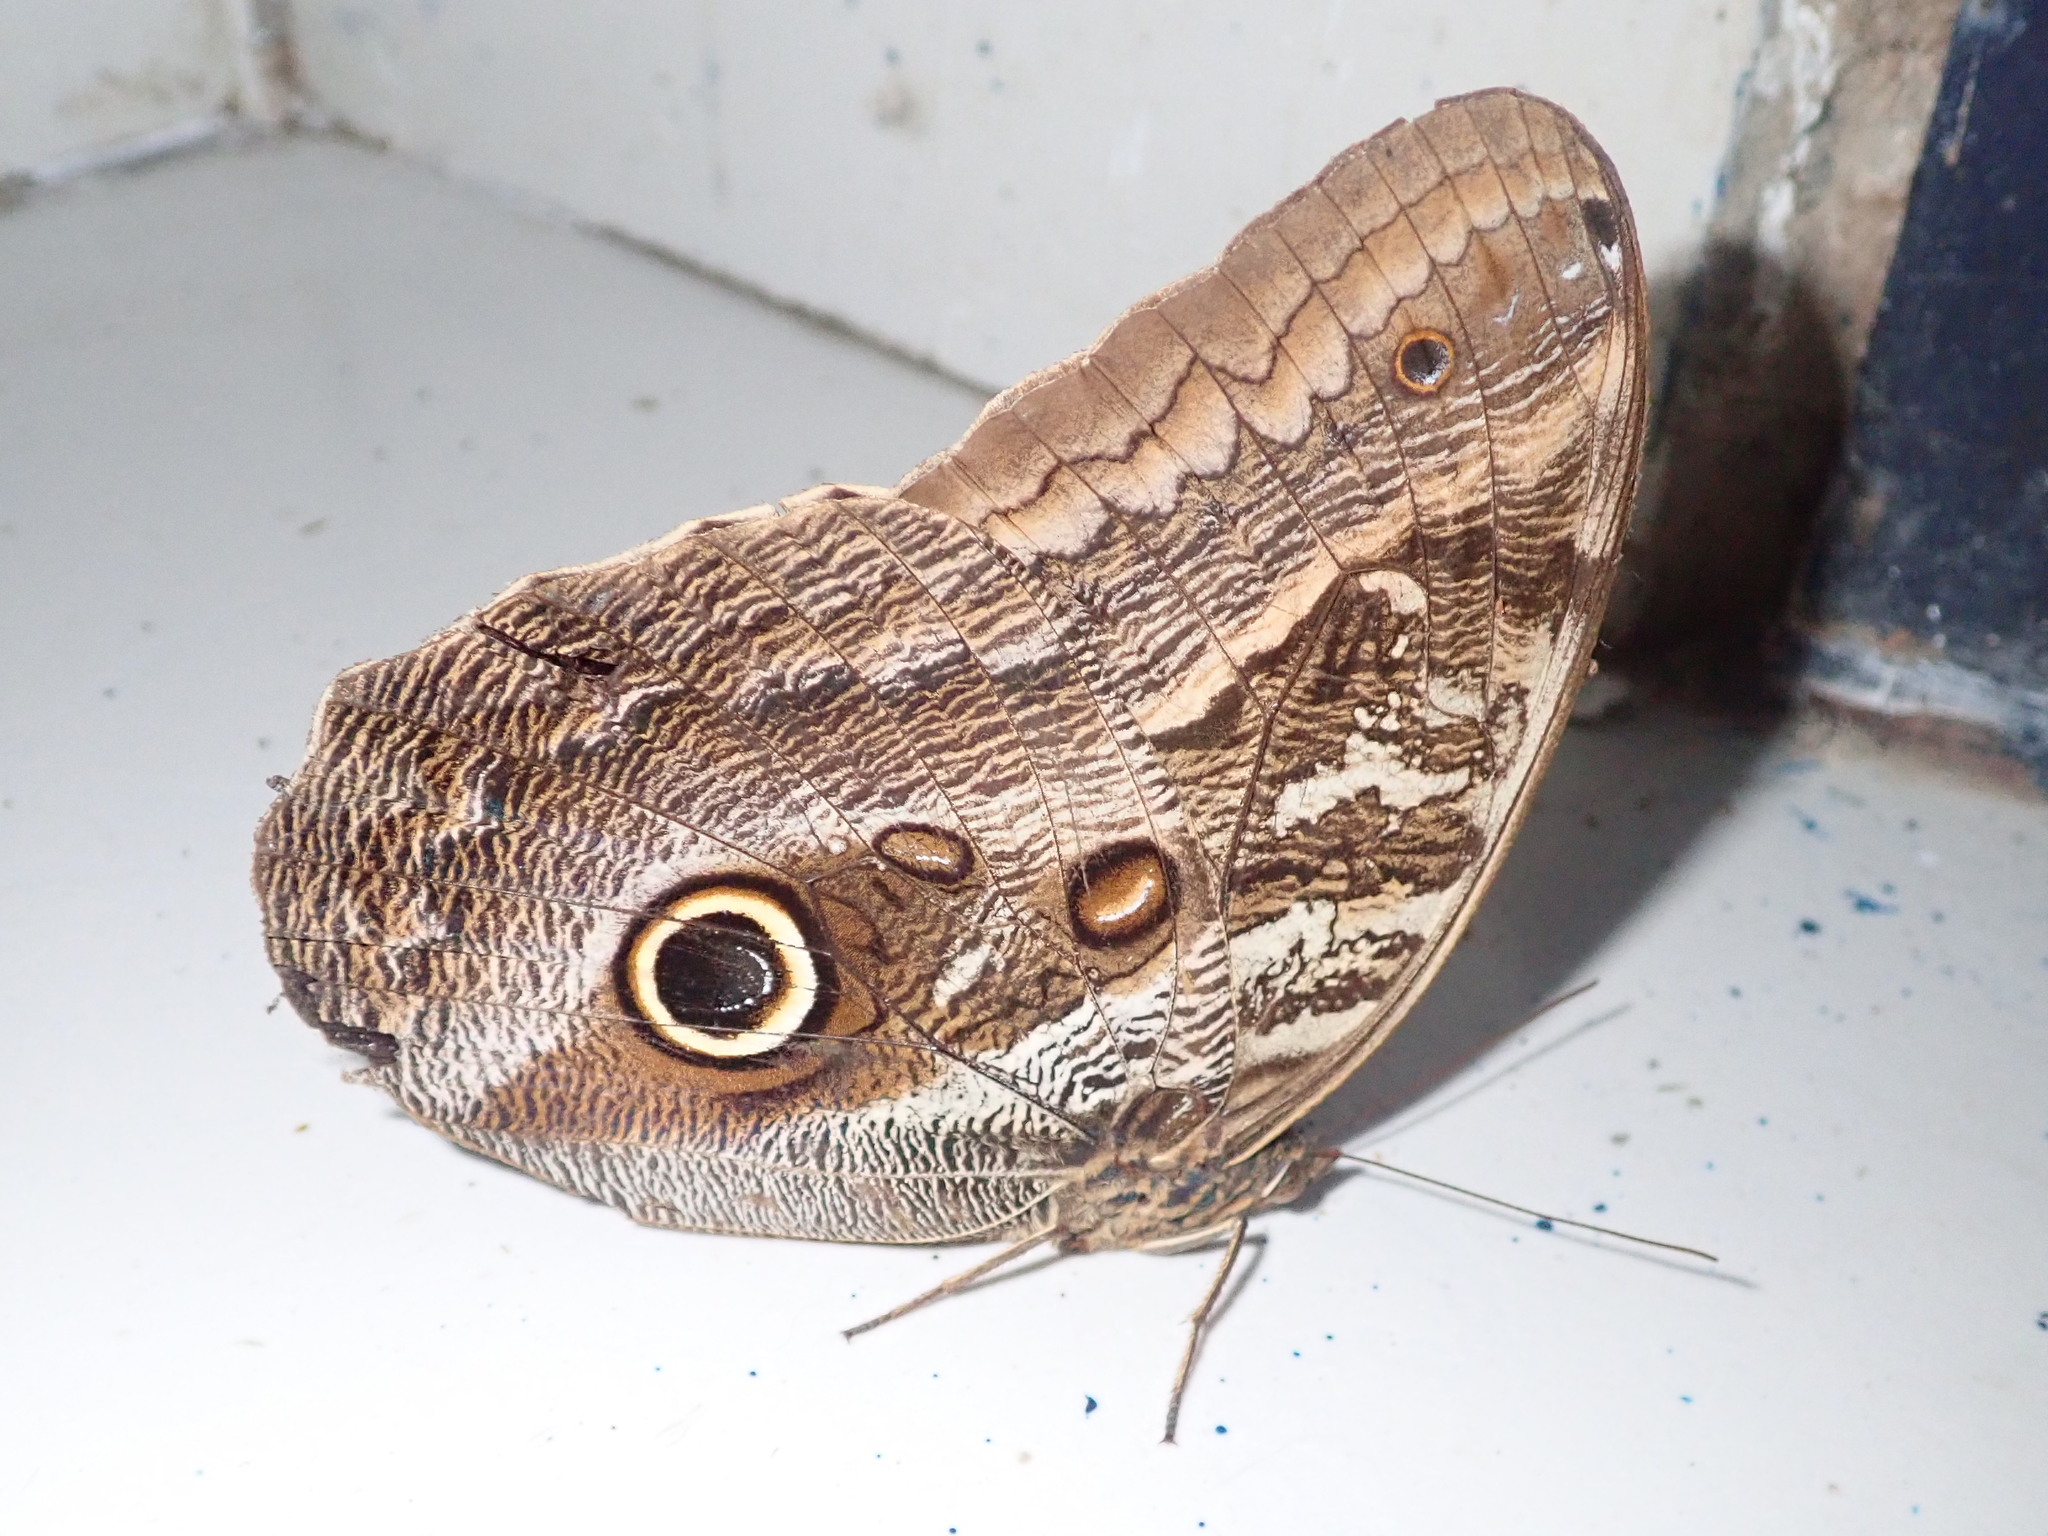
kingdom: Animalia
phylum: Arthropoda
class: Insecta
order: Lepidoptera
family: Nymphalidae
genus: Caligo
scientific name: Caligo teucer
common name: Teucer owl butterfly
